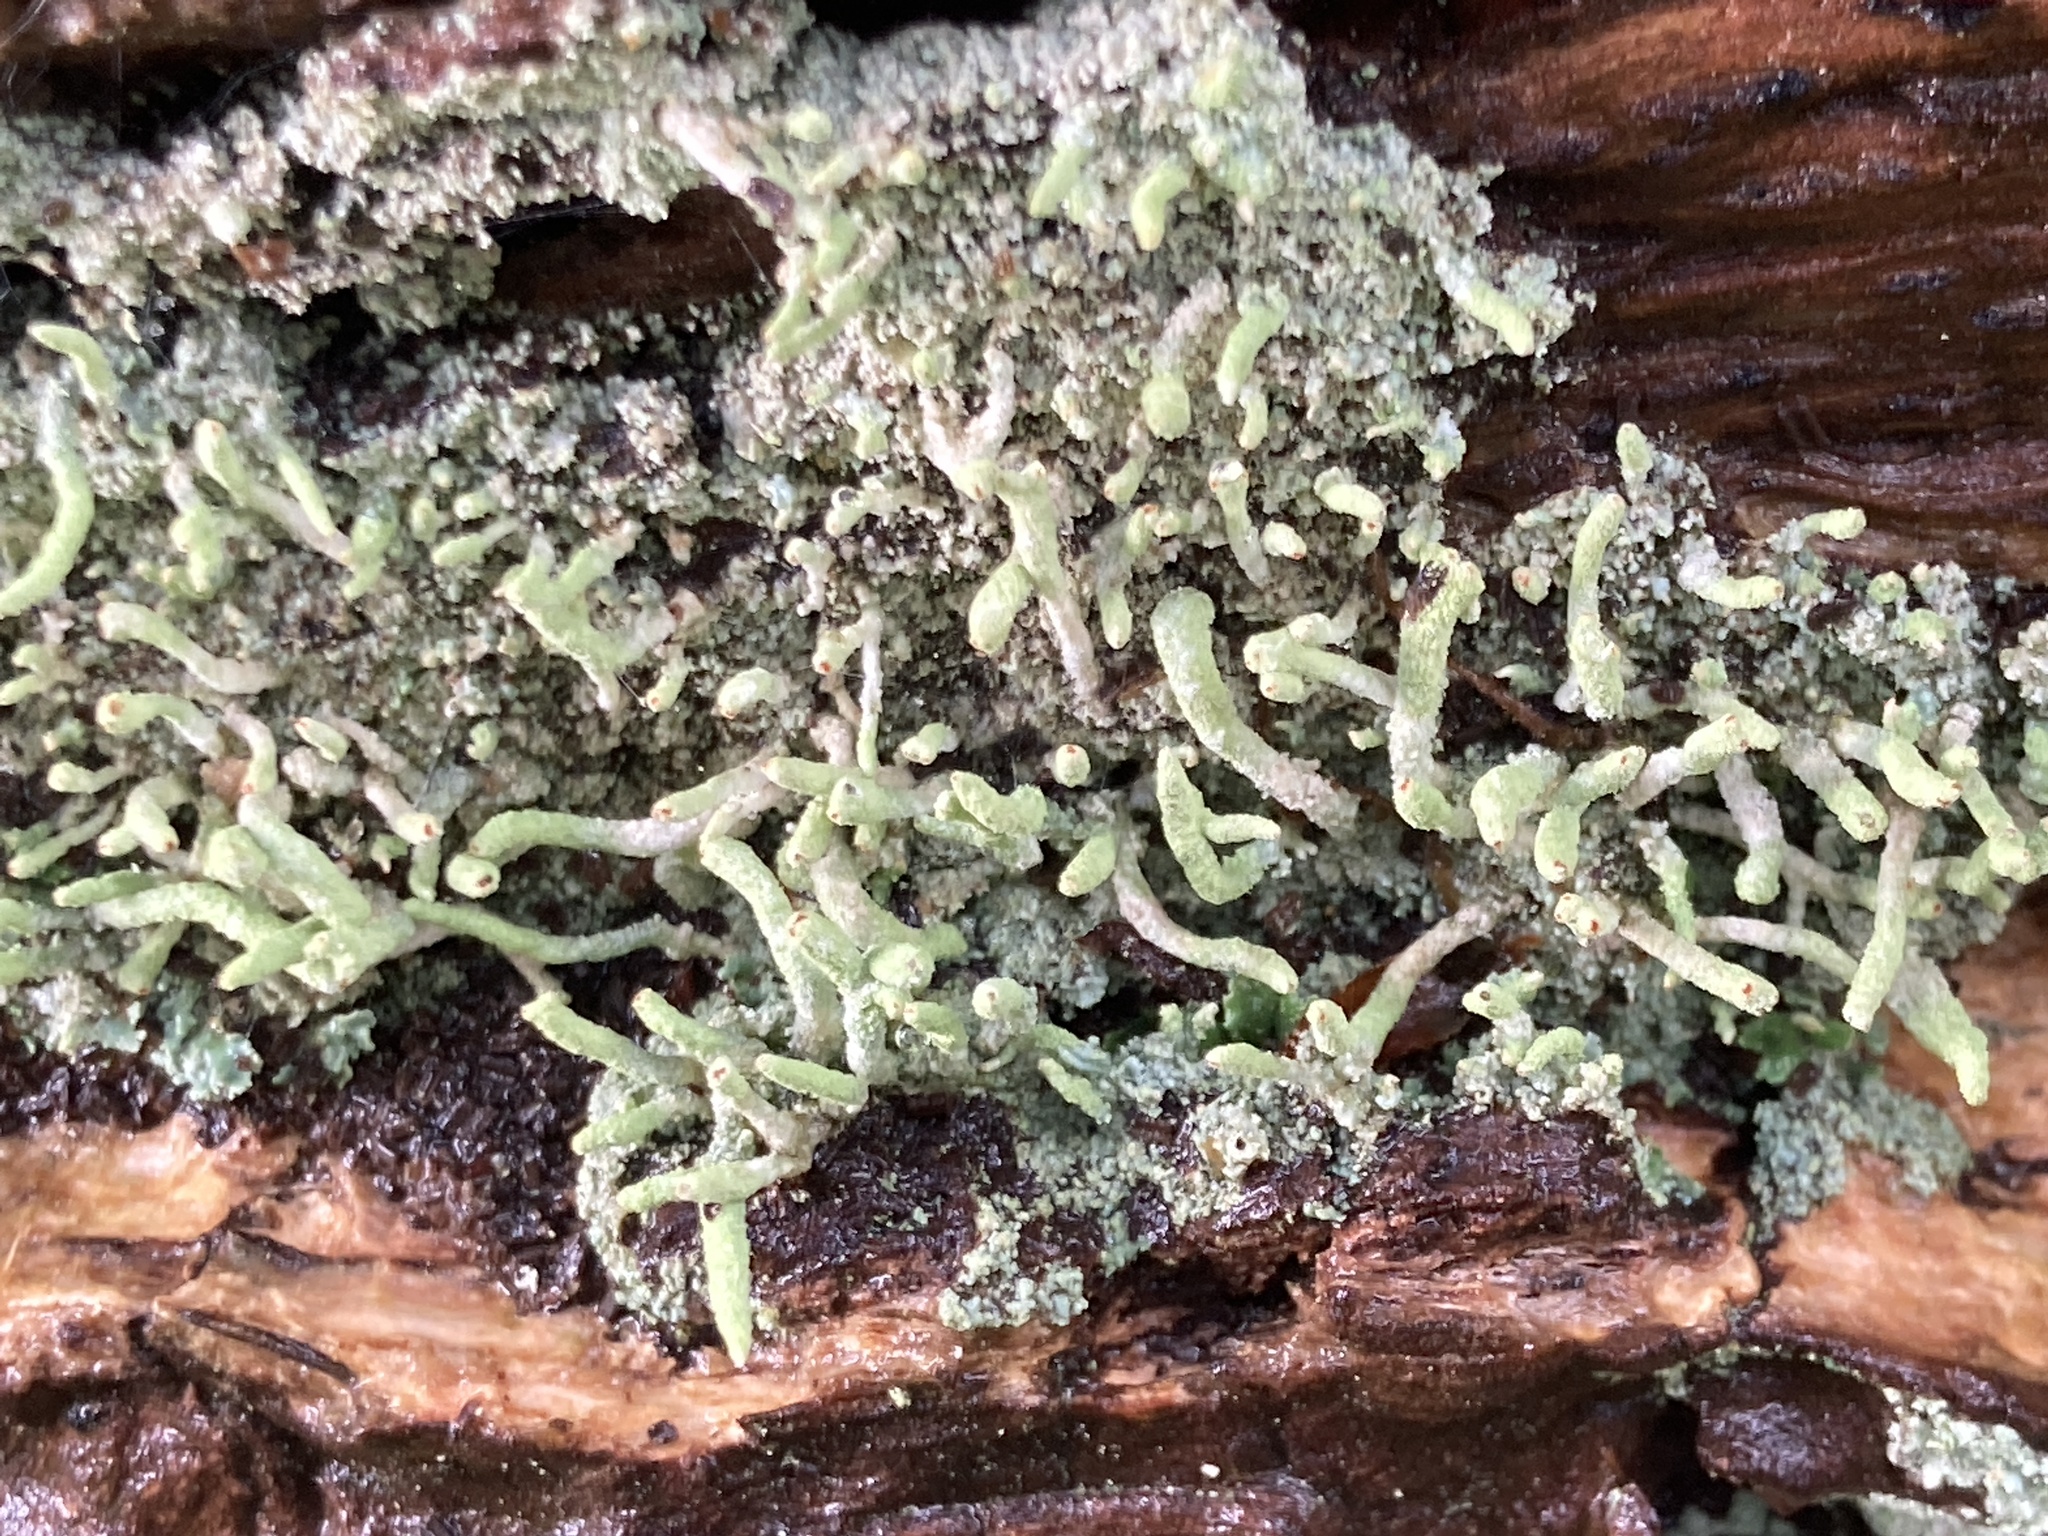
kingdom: Fungi
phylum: Ascomycota
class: Lecanoromycetes
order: Lecanorales
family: Cladoniaceae
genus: Cladonia
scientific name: Cladonia coniocraea
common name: Common powderhorn
